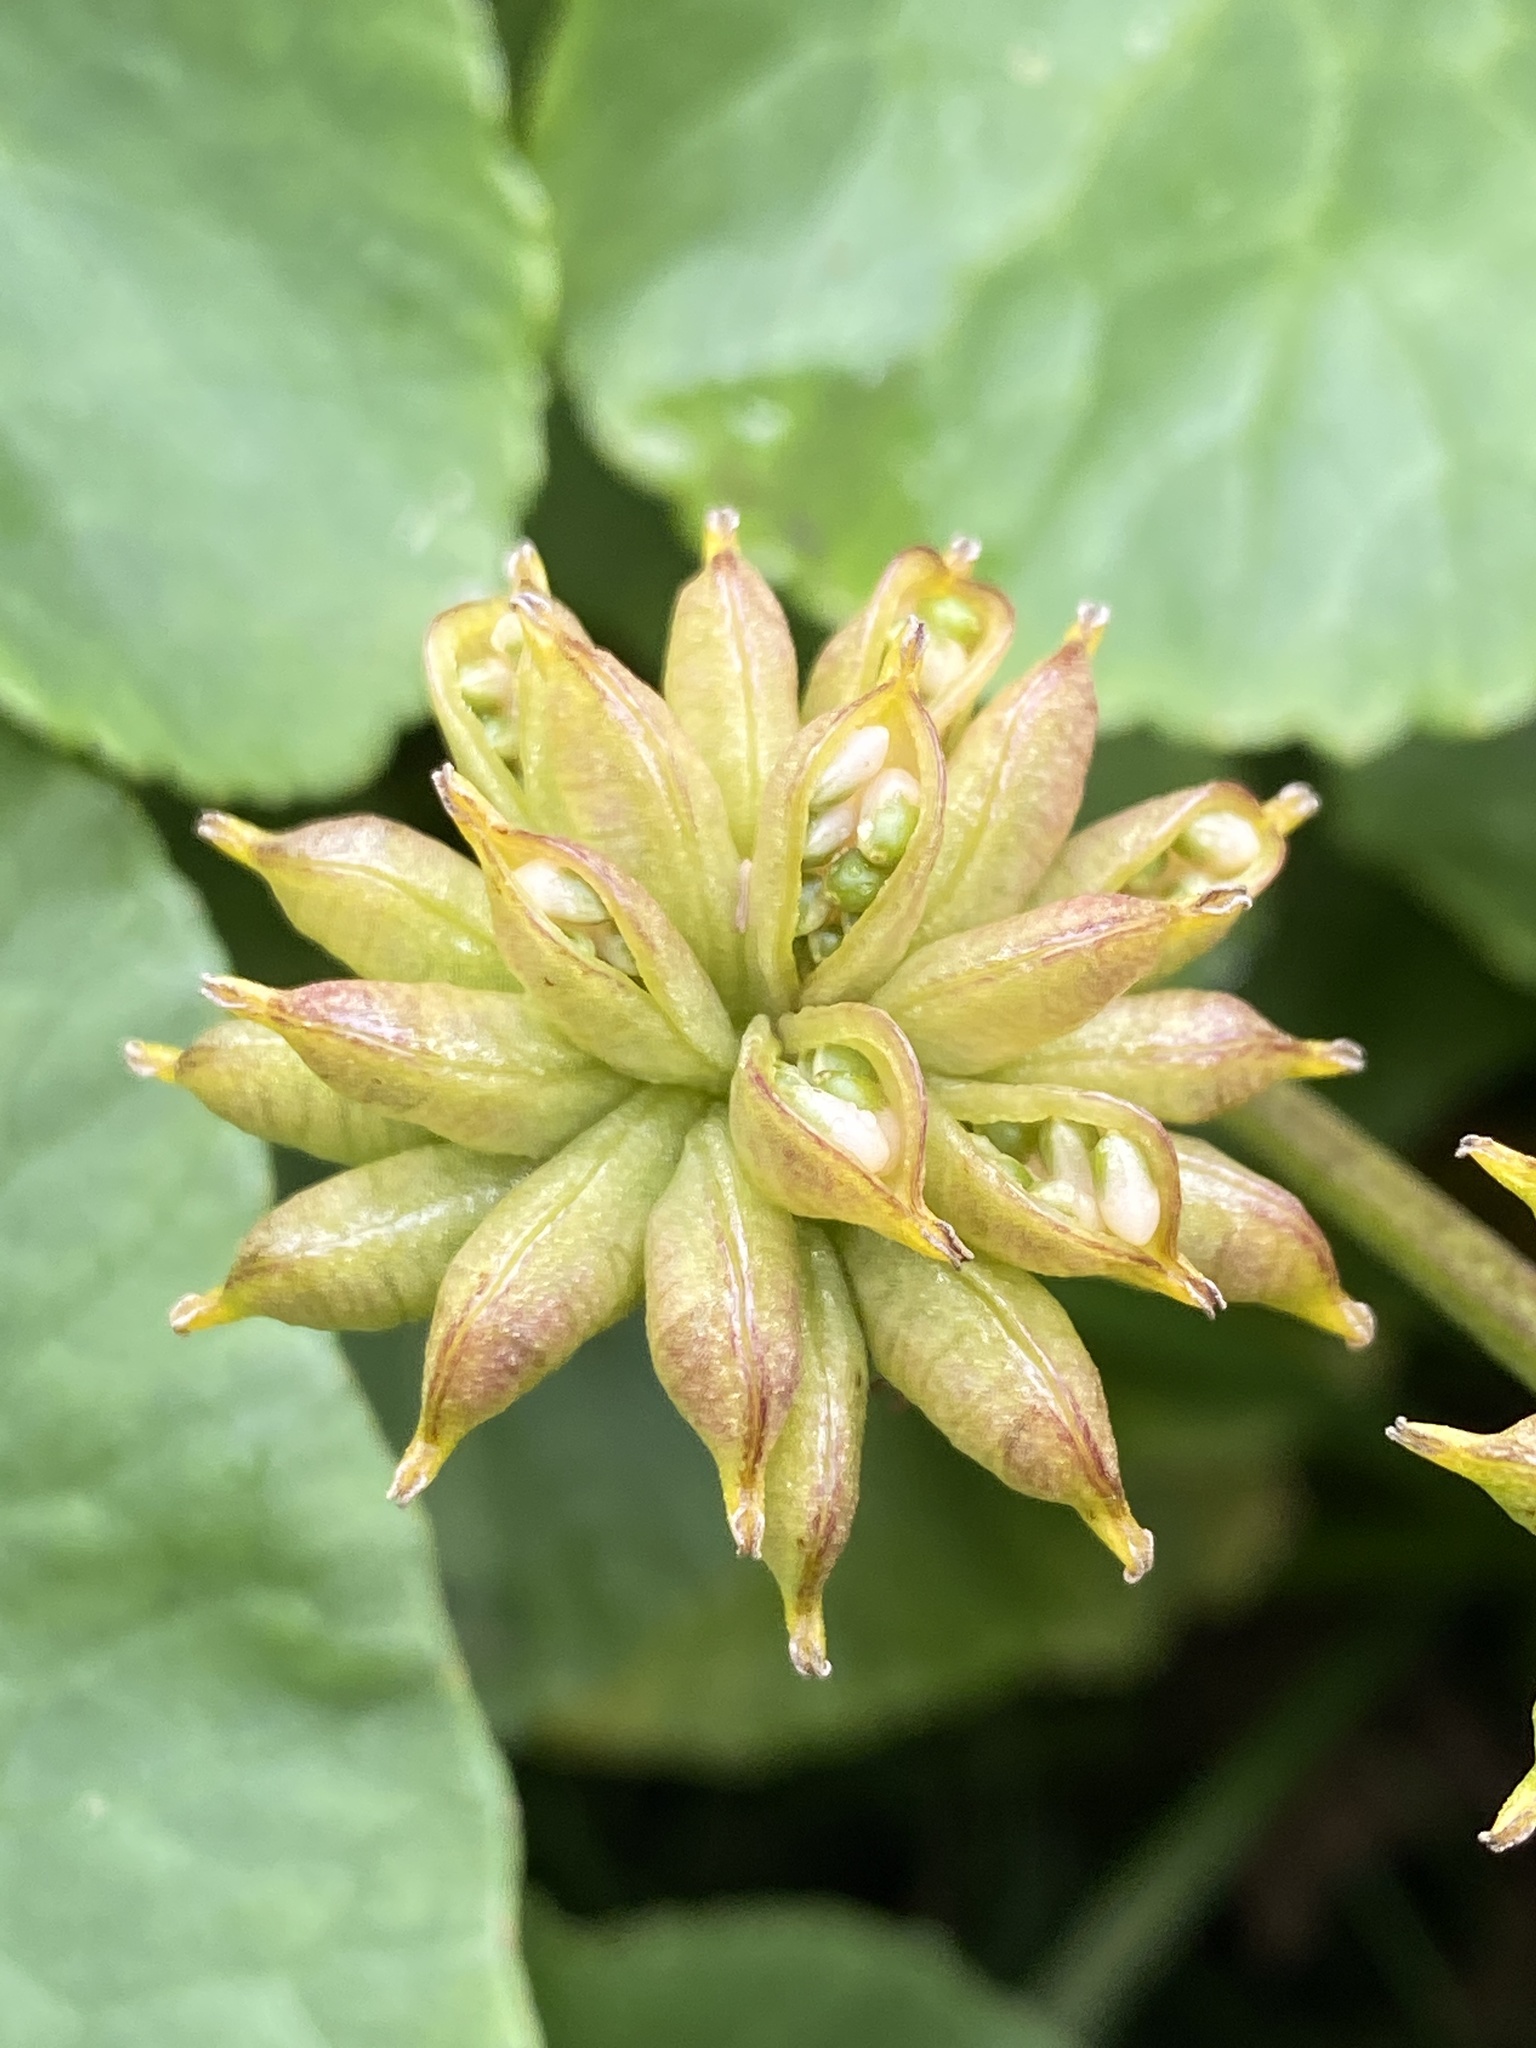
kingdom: Plantae
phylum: Tracheophyta
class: Magnoliopsida
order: Ranunculales
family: Ranunculaceae
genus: Caltha
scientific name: Caltha palustris
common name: Marsh marigold
